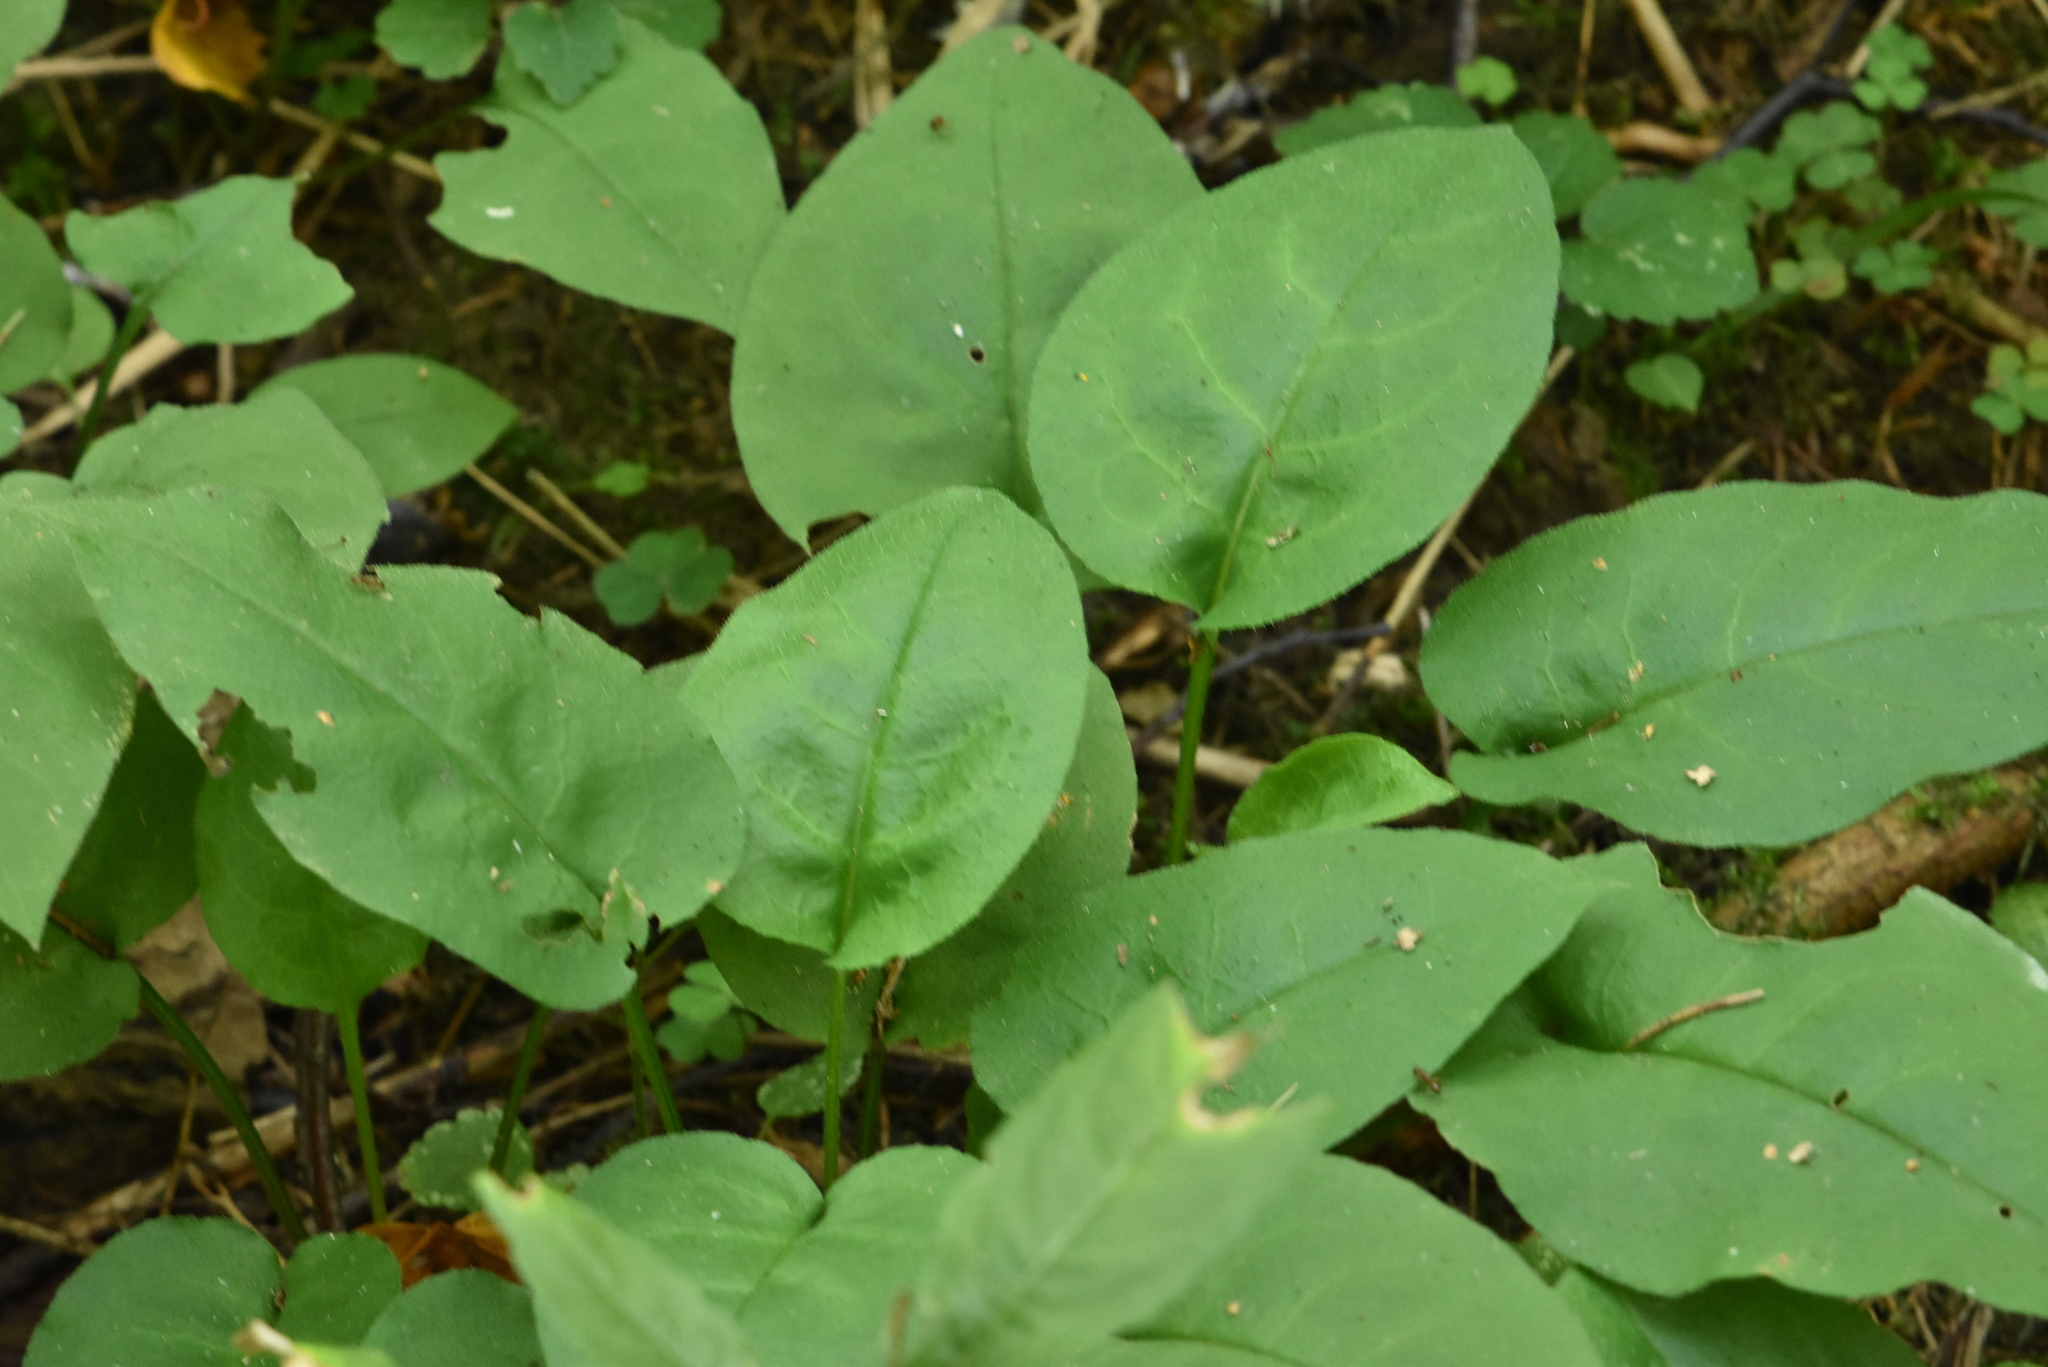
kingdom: Plantae
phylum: Tracheophyta
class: Magnoliopsida
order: Boraginales
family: Boraginaceae
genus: Pulmonaria
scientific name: Pulmonaria obscura
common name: Suffolk lungwort
